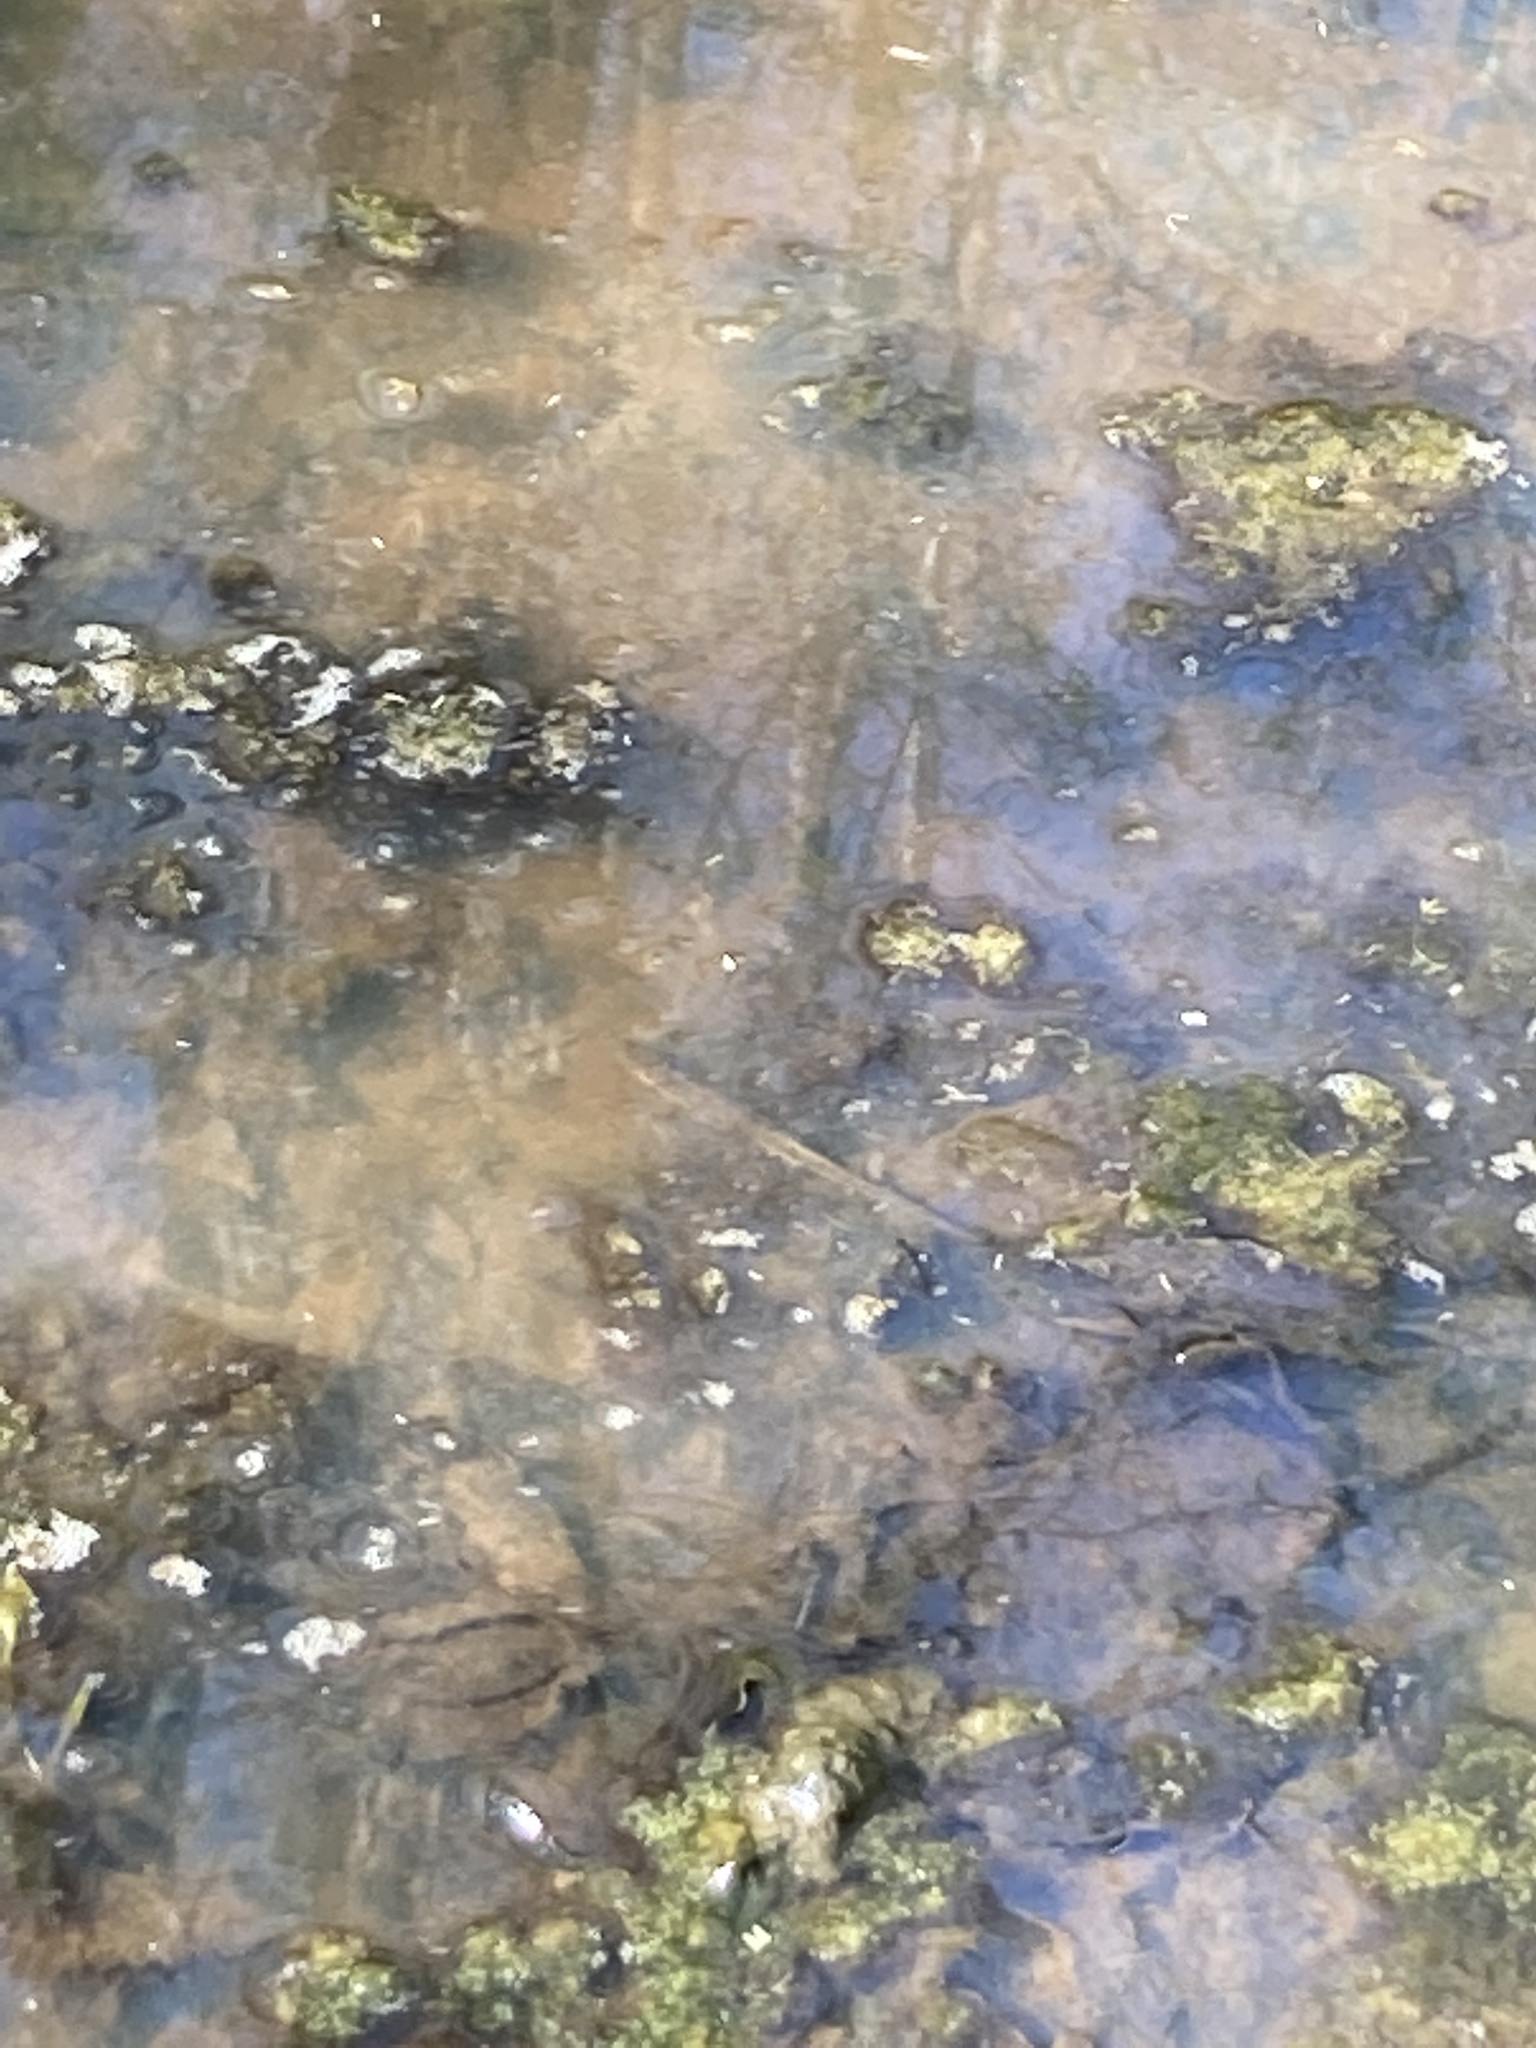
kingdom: Animalia
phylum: Chordata
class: Amphibia
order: Caudata
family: Salamandridae
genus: Notophthalmus
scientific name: Notophthalmus viridescens
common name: Eastern newt
